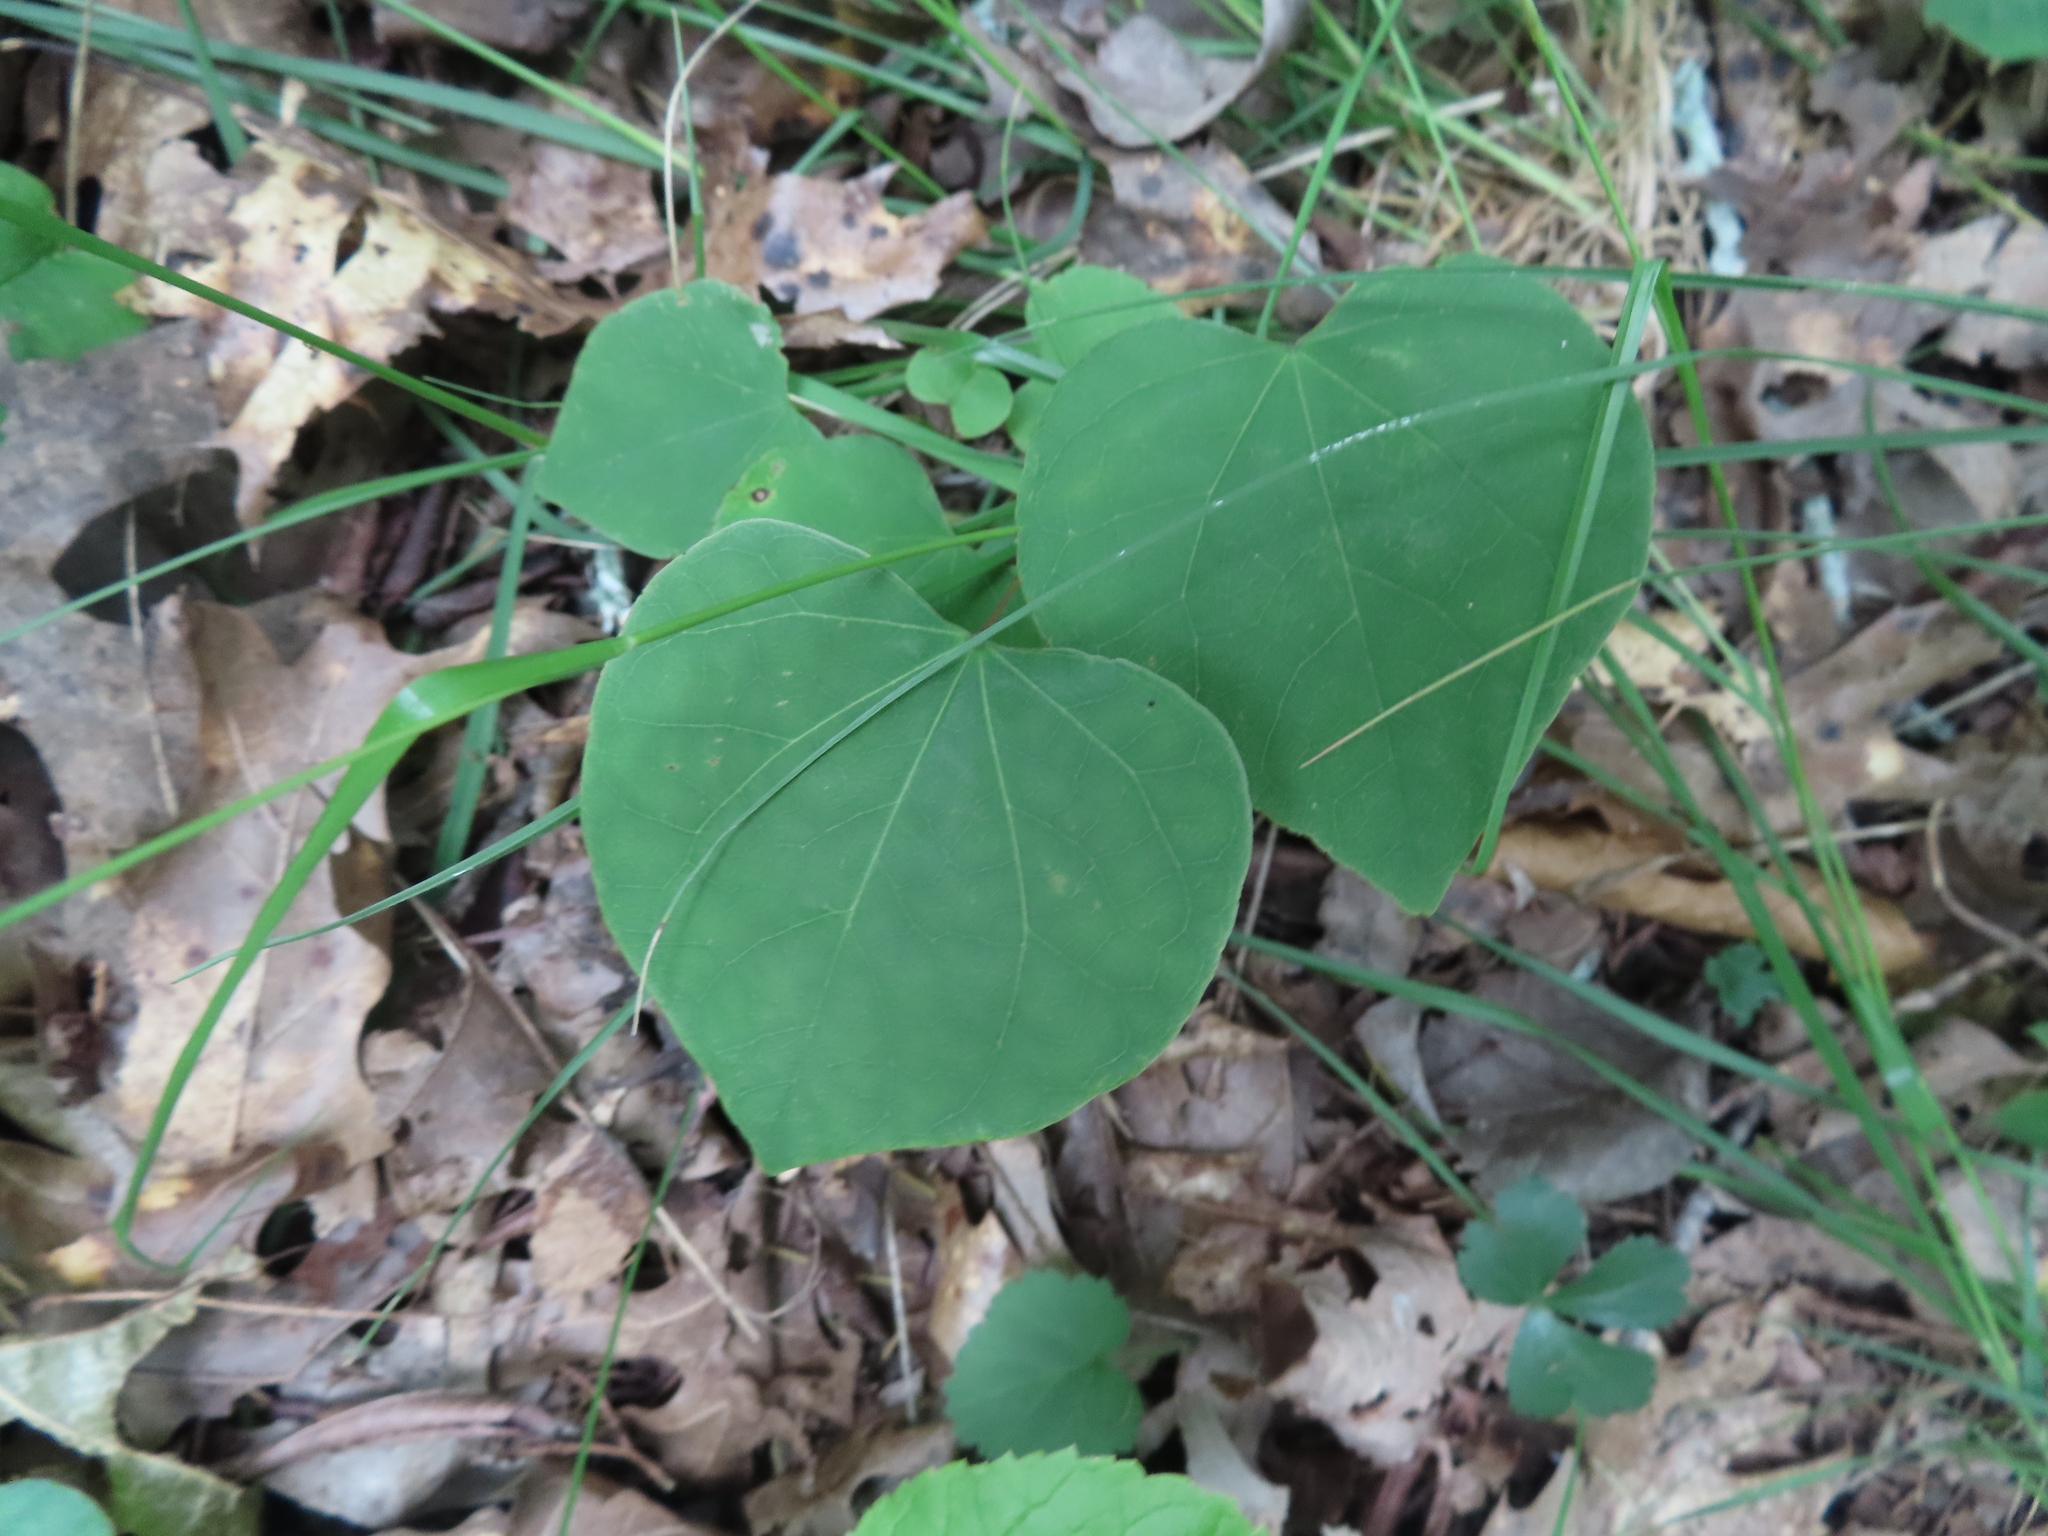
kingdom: Plantae
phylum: Tracheophyta
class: Magnoliopsida
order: Fabales
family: Fabaceae
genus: Cercis
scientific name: Cercis canadensis
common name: Eastern redbud
